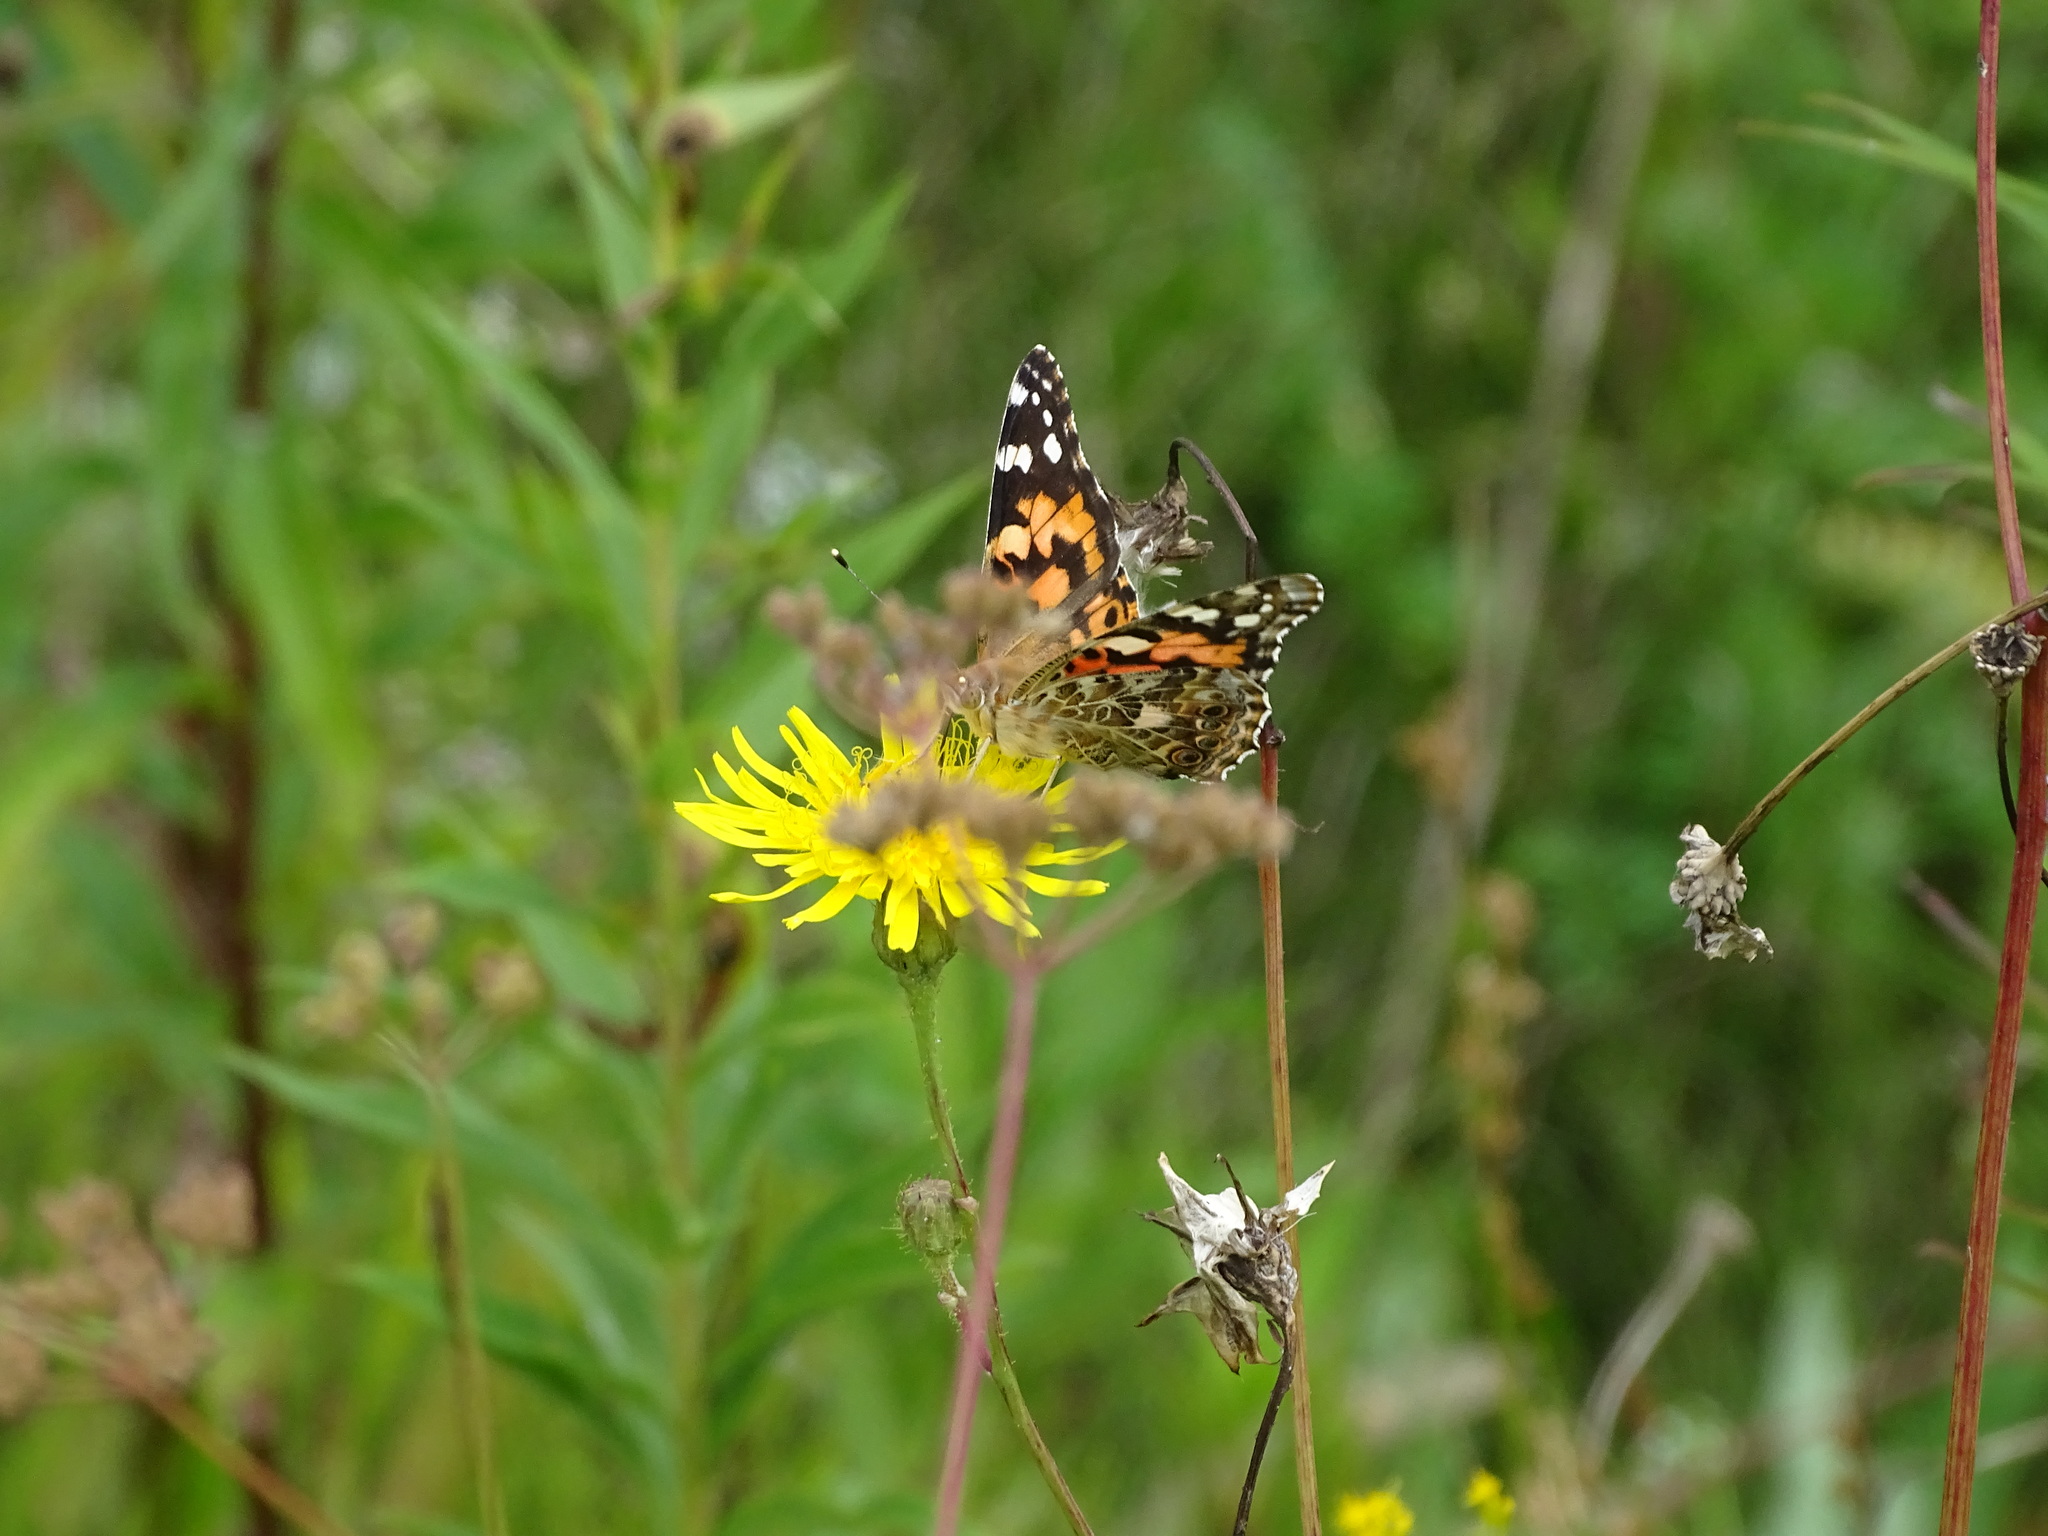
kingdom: Animalia
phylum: Arthropoda
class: Insecta
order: Lepidoptera
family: Nymphalidae
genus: Vanessa
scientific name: Vanessa cardui
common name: Painted lady
